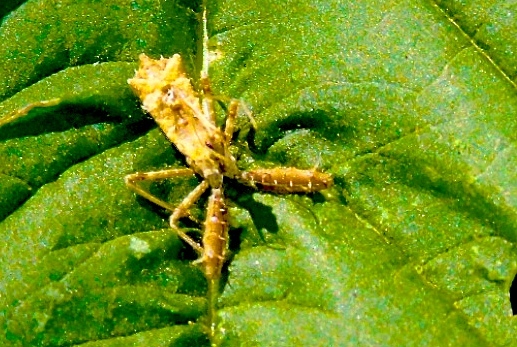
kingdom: Animalia
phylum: Arthropoda
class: Insecta
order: Hemiptera
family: Reduviidae
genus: Sinea
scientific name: Sinea
